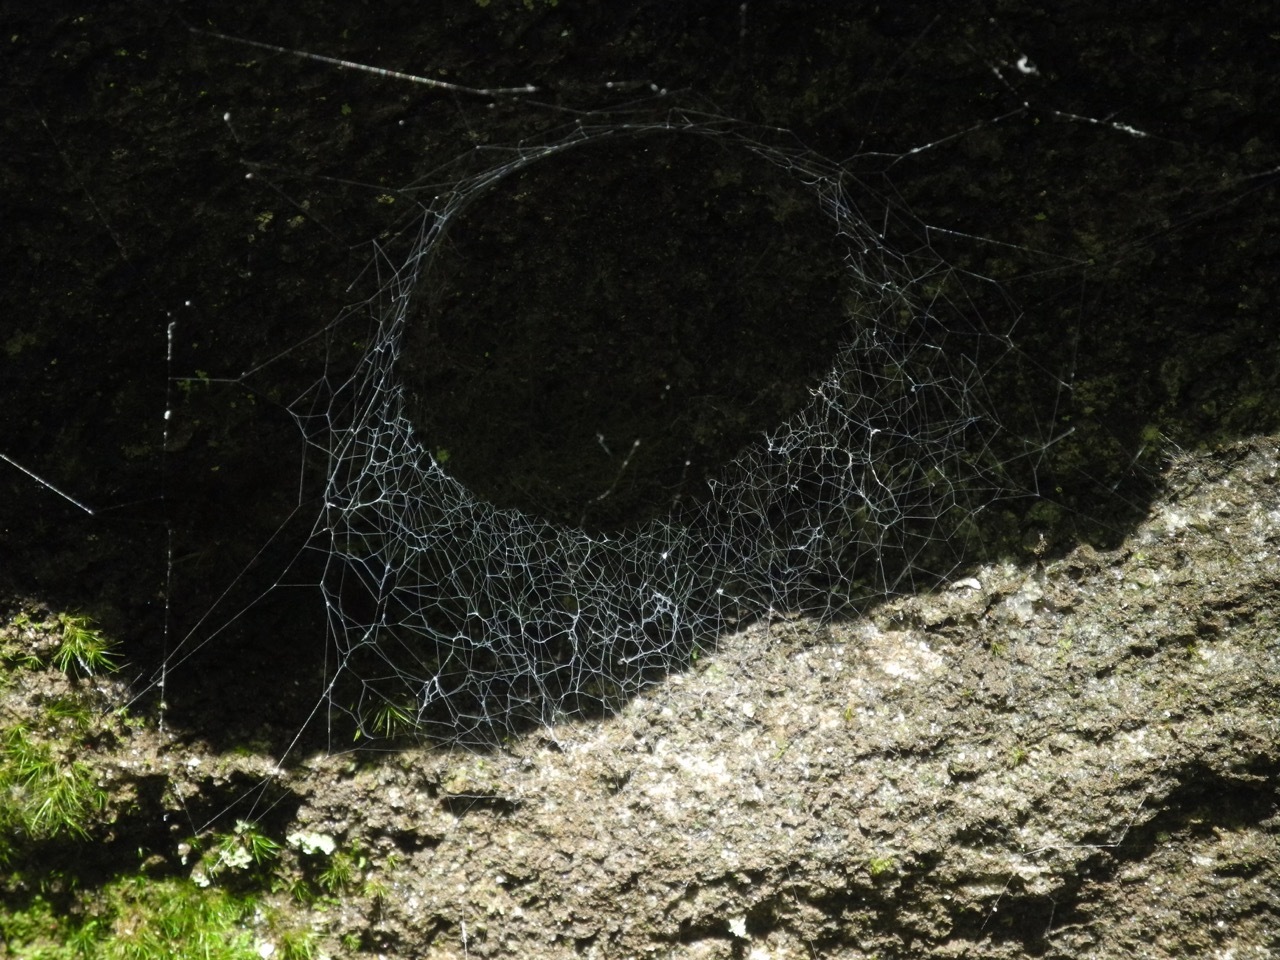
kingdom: Animalia
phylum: Arthropoda
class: Arachnida
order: Araneae
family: Hypochilidae
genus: Hypochilus
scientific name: Hypochilus pococki
